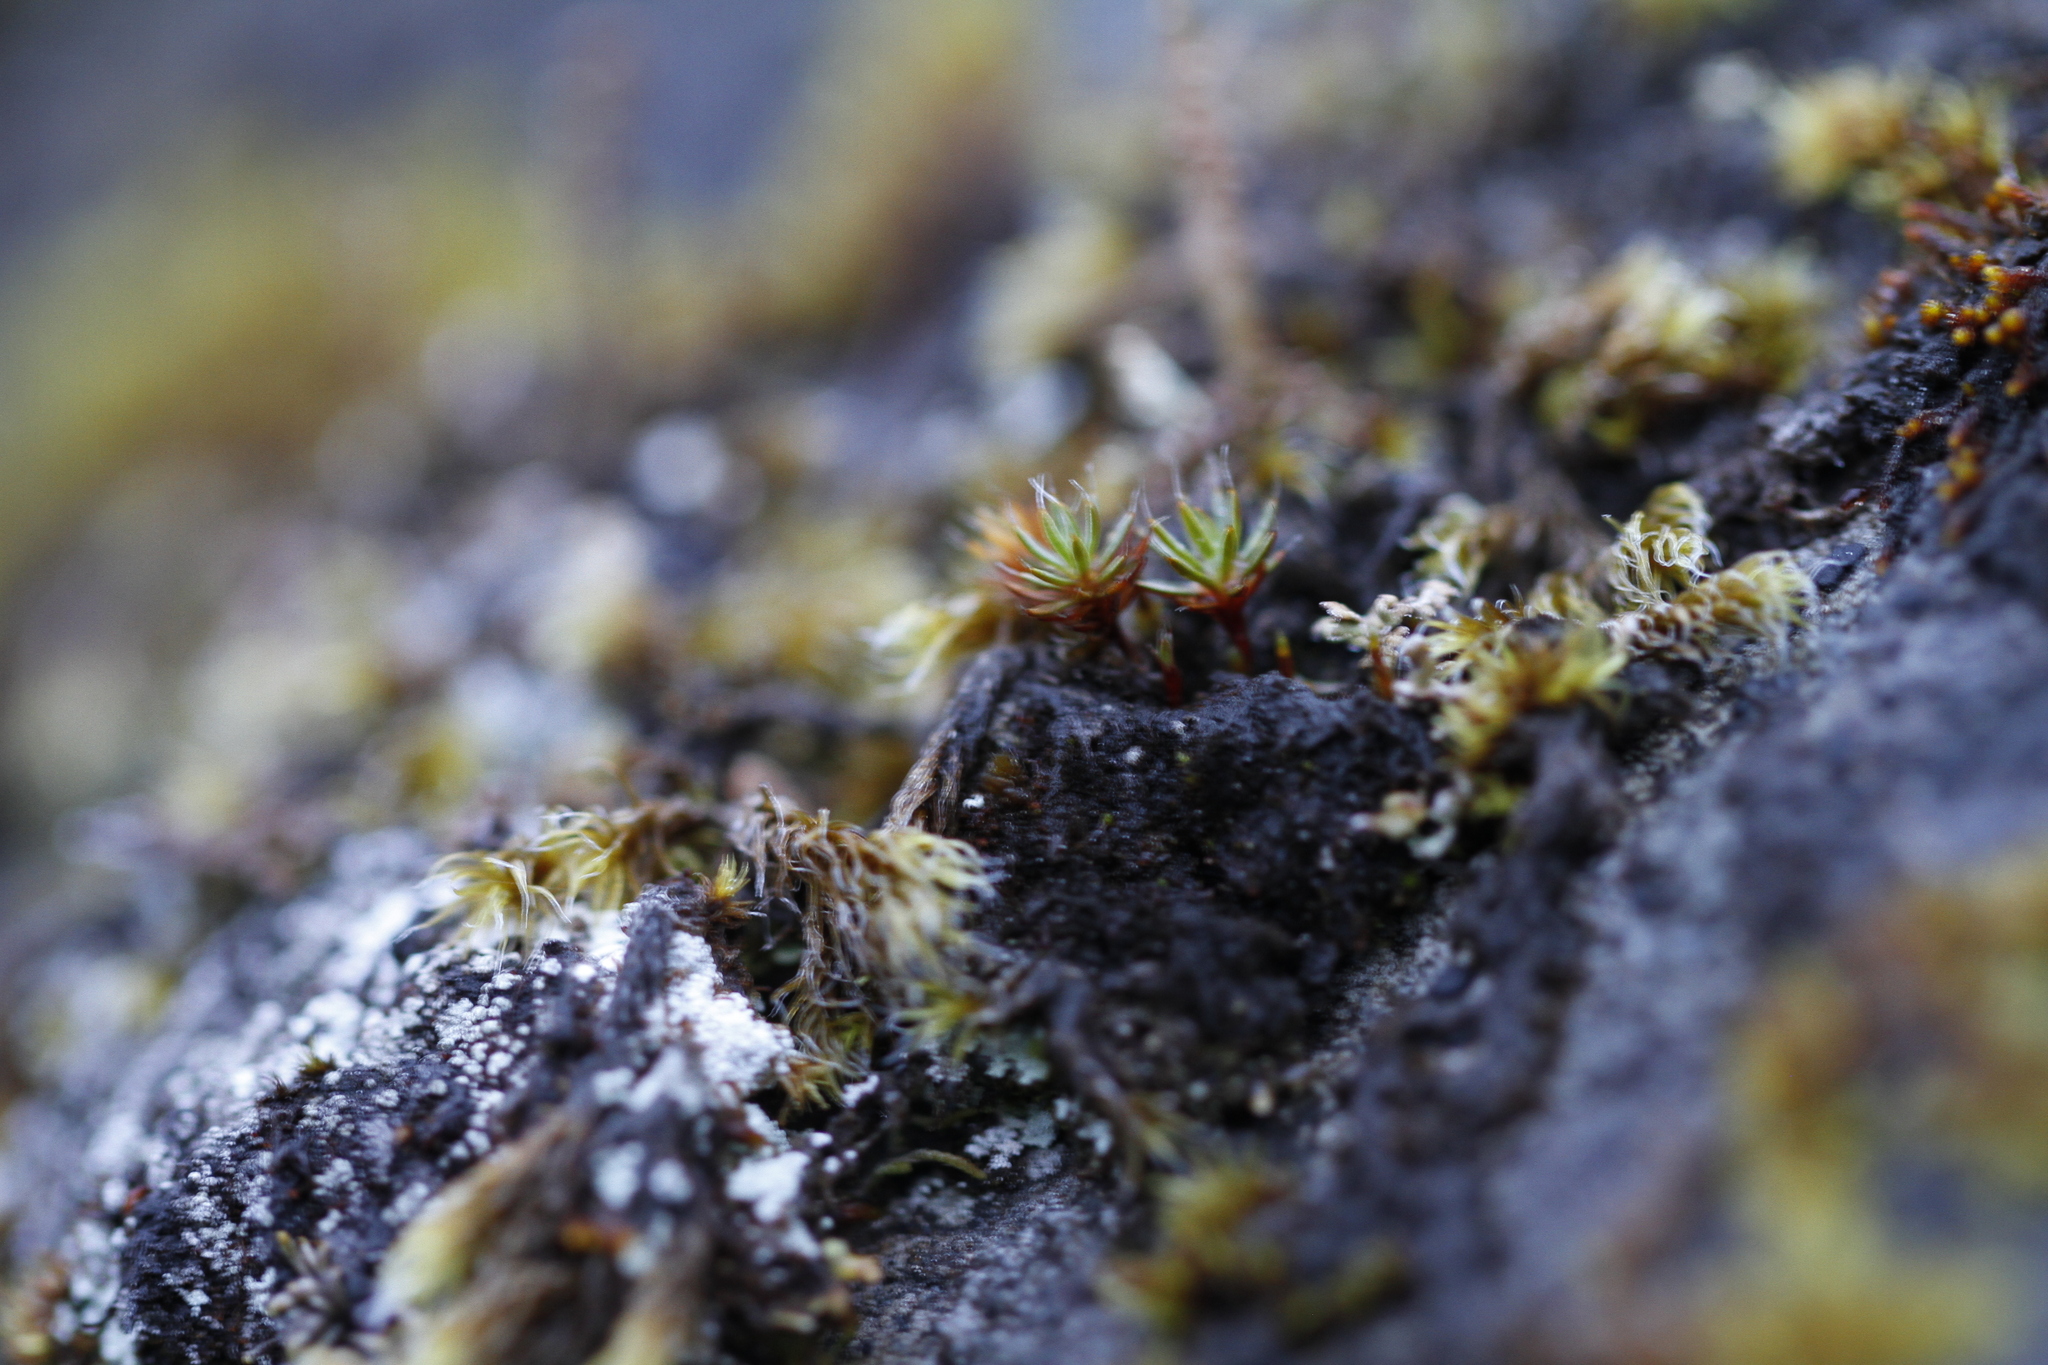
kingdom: Plantae
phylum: Bryophyta
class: Polytrichopsida
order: Polytrichales
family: Polytrichaceae
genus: Polytrichum
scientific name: Polytrichum piliferum
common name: Bristly haircap
